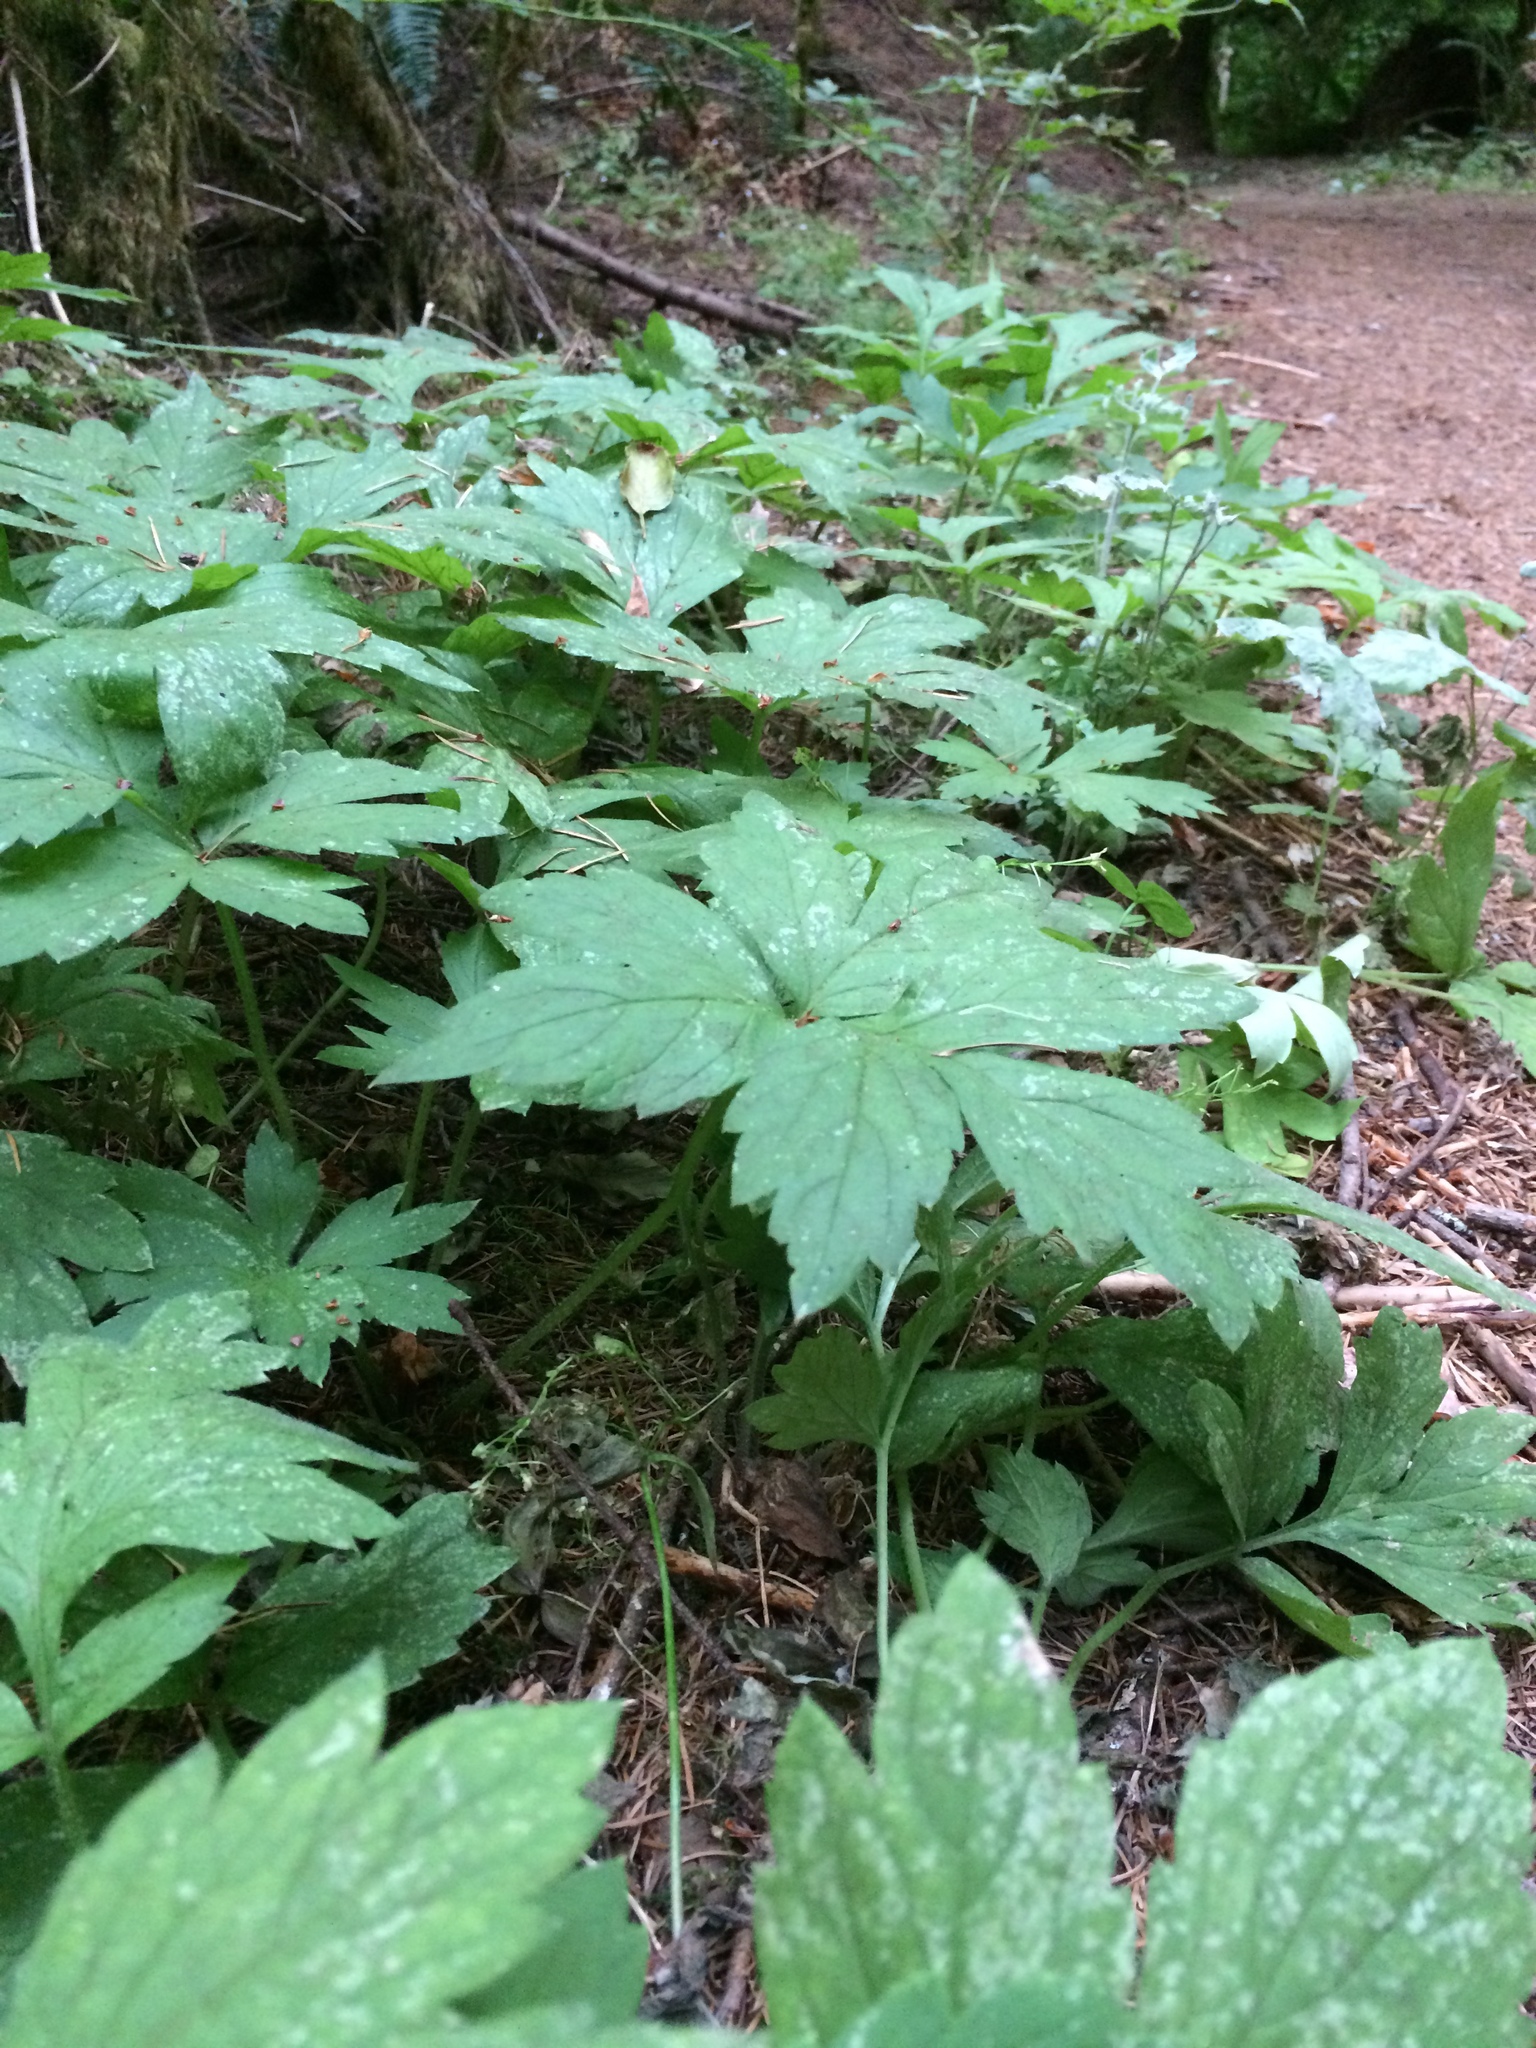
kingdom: Plantae
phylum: Tracheophyta
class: Magnoliopsida
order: Boraginales
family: Hydrophyllaceae
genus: Hydrophyllum
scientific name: Hydrophyllum tenuipes
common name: Pacific waterleaf
